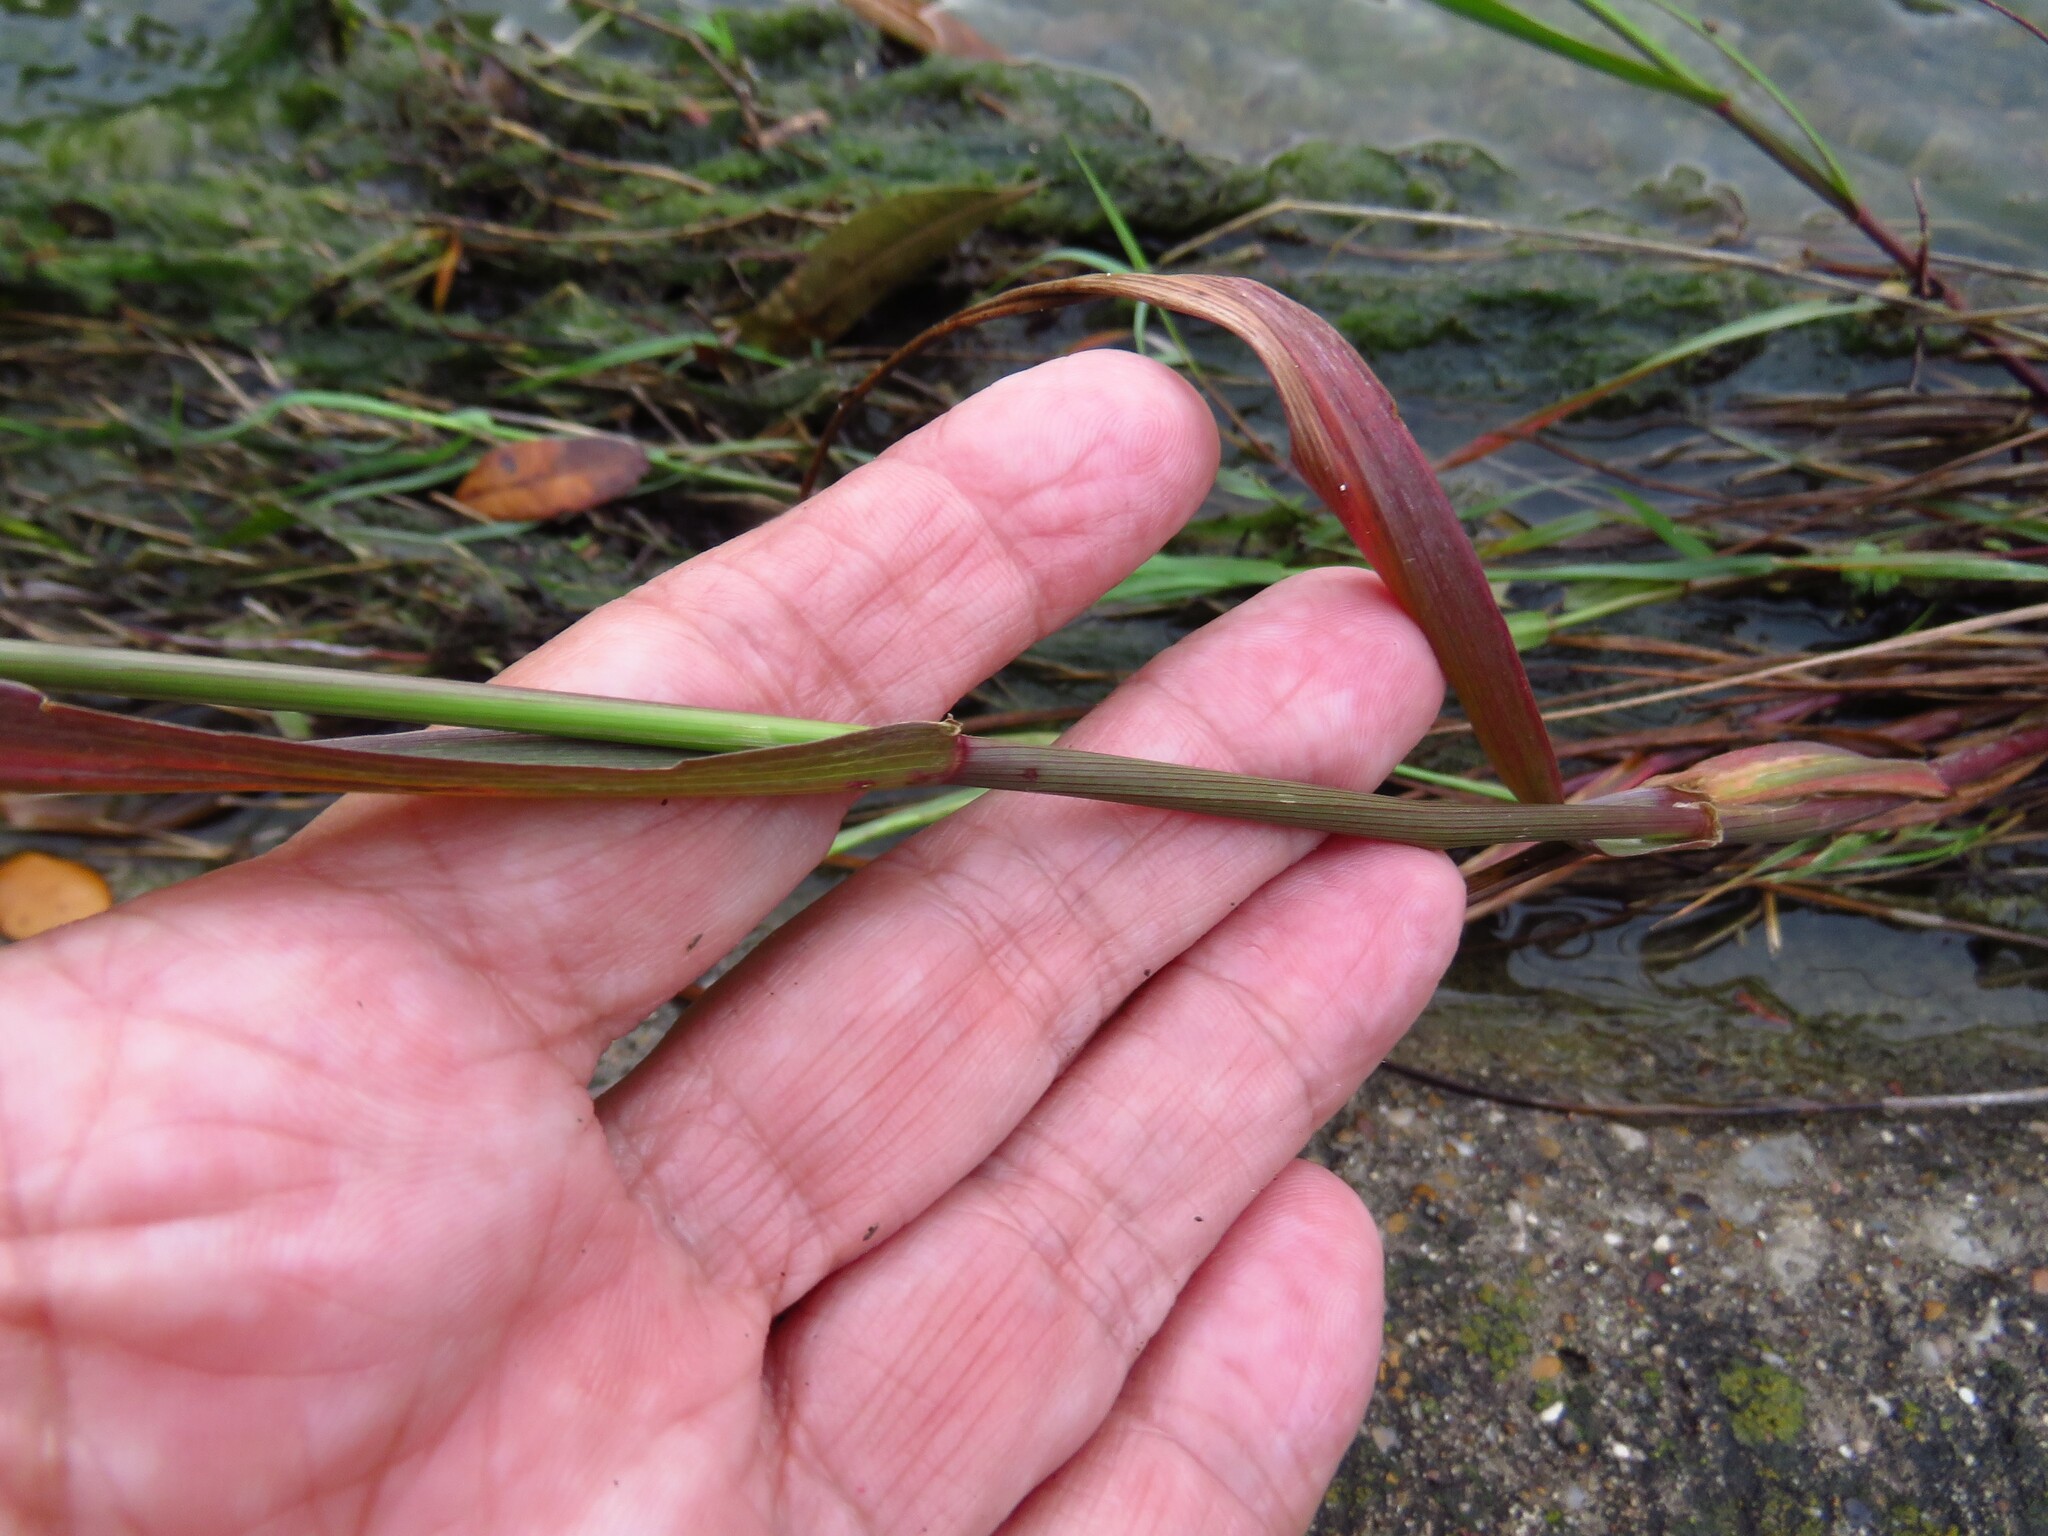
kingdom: Plantae
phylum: Tracheophyta
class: Liliopsida
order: Poales
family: Poaceae
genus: Lolium
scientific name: Lolium perenne
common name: Perennial ryegrass
